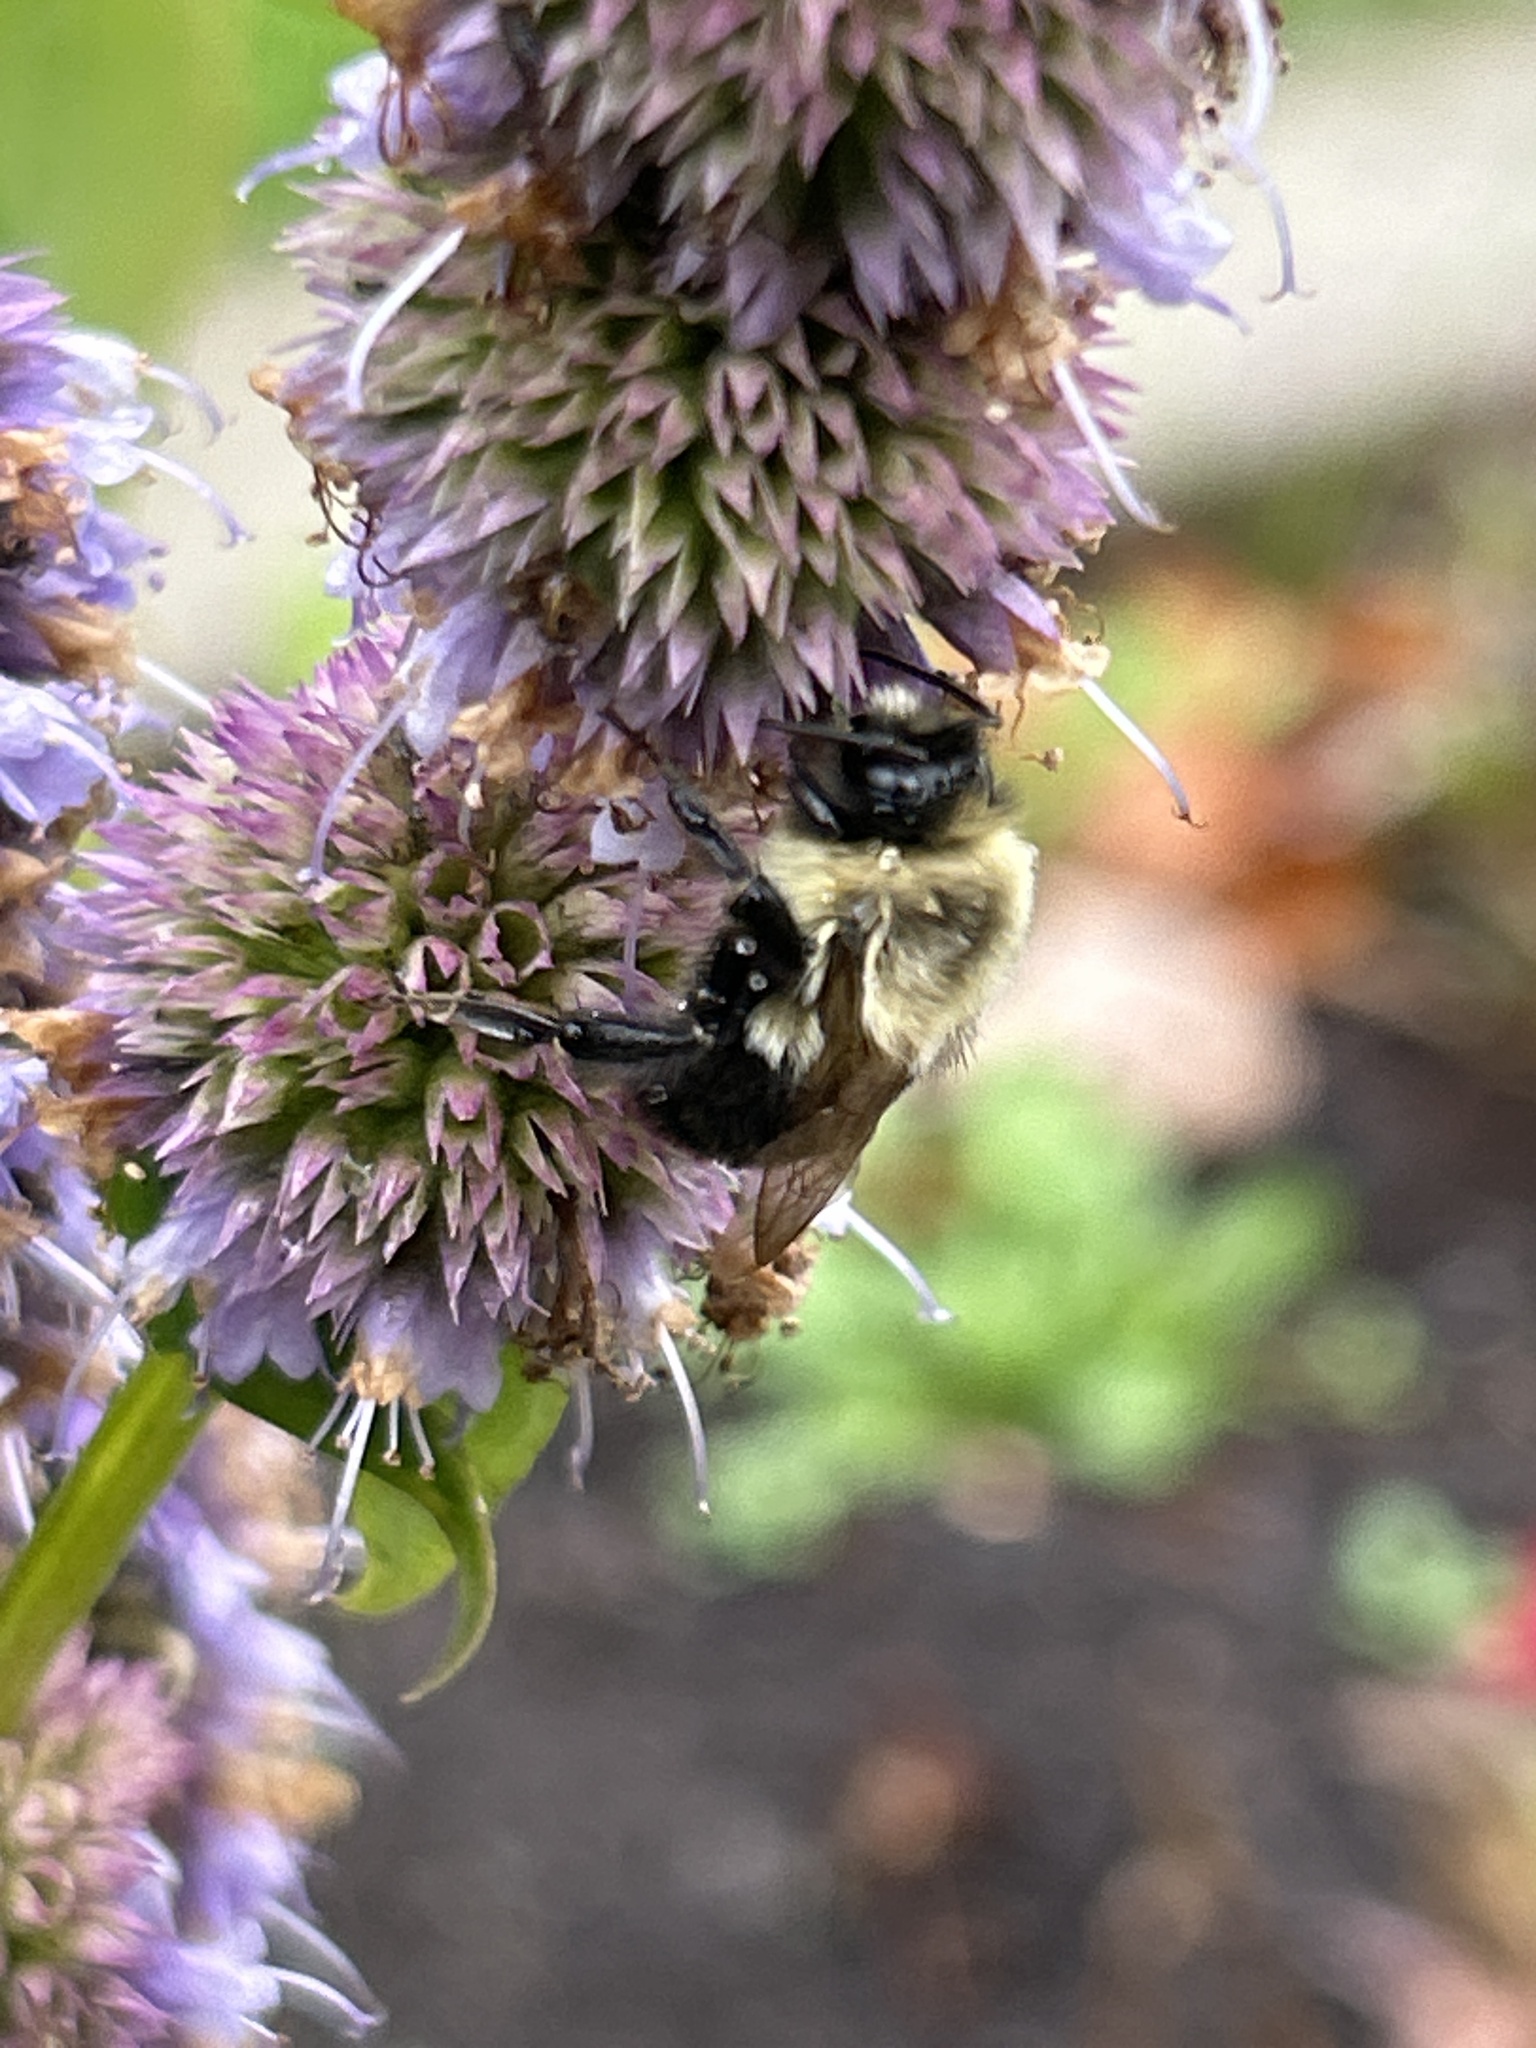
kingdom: Animalia
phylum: Arthropoda
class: Insecta
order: Hymenoptera
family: Apidae
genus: Bombus
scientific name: Bombus impatiens
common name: Common eastern bumble bee
